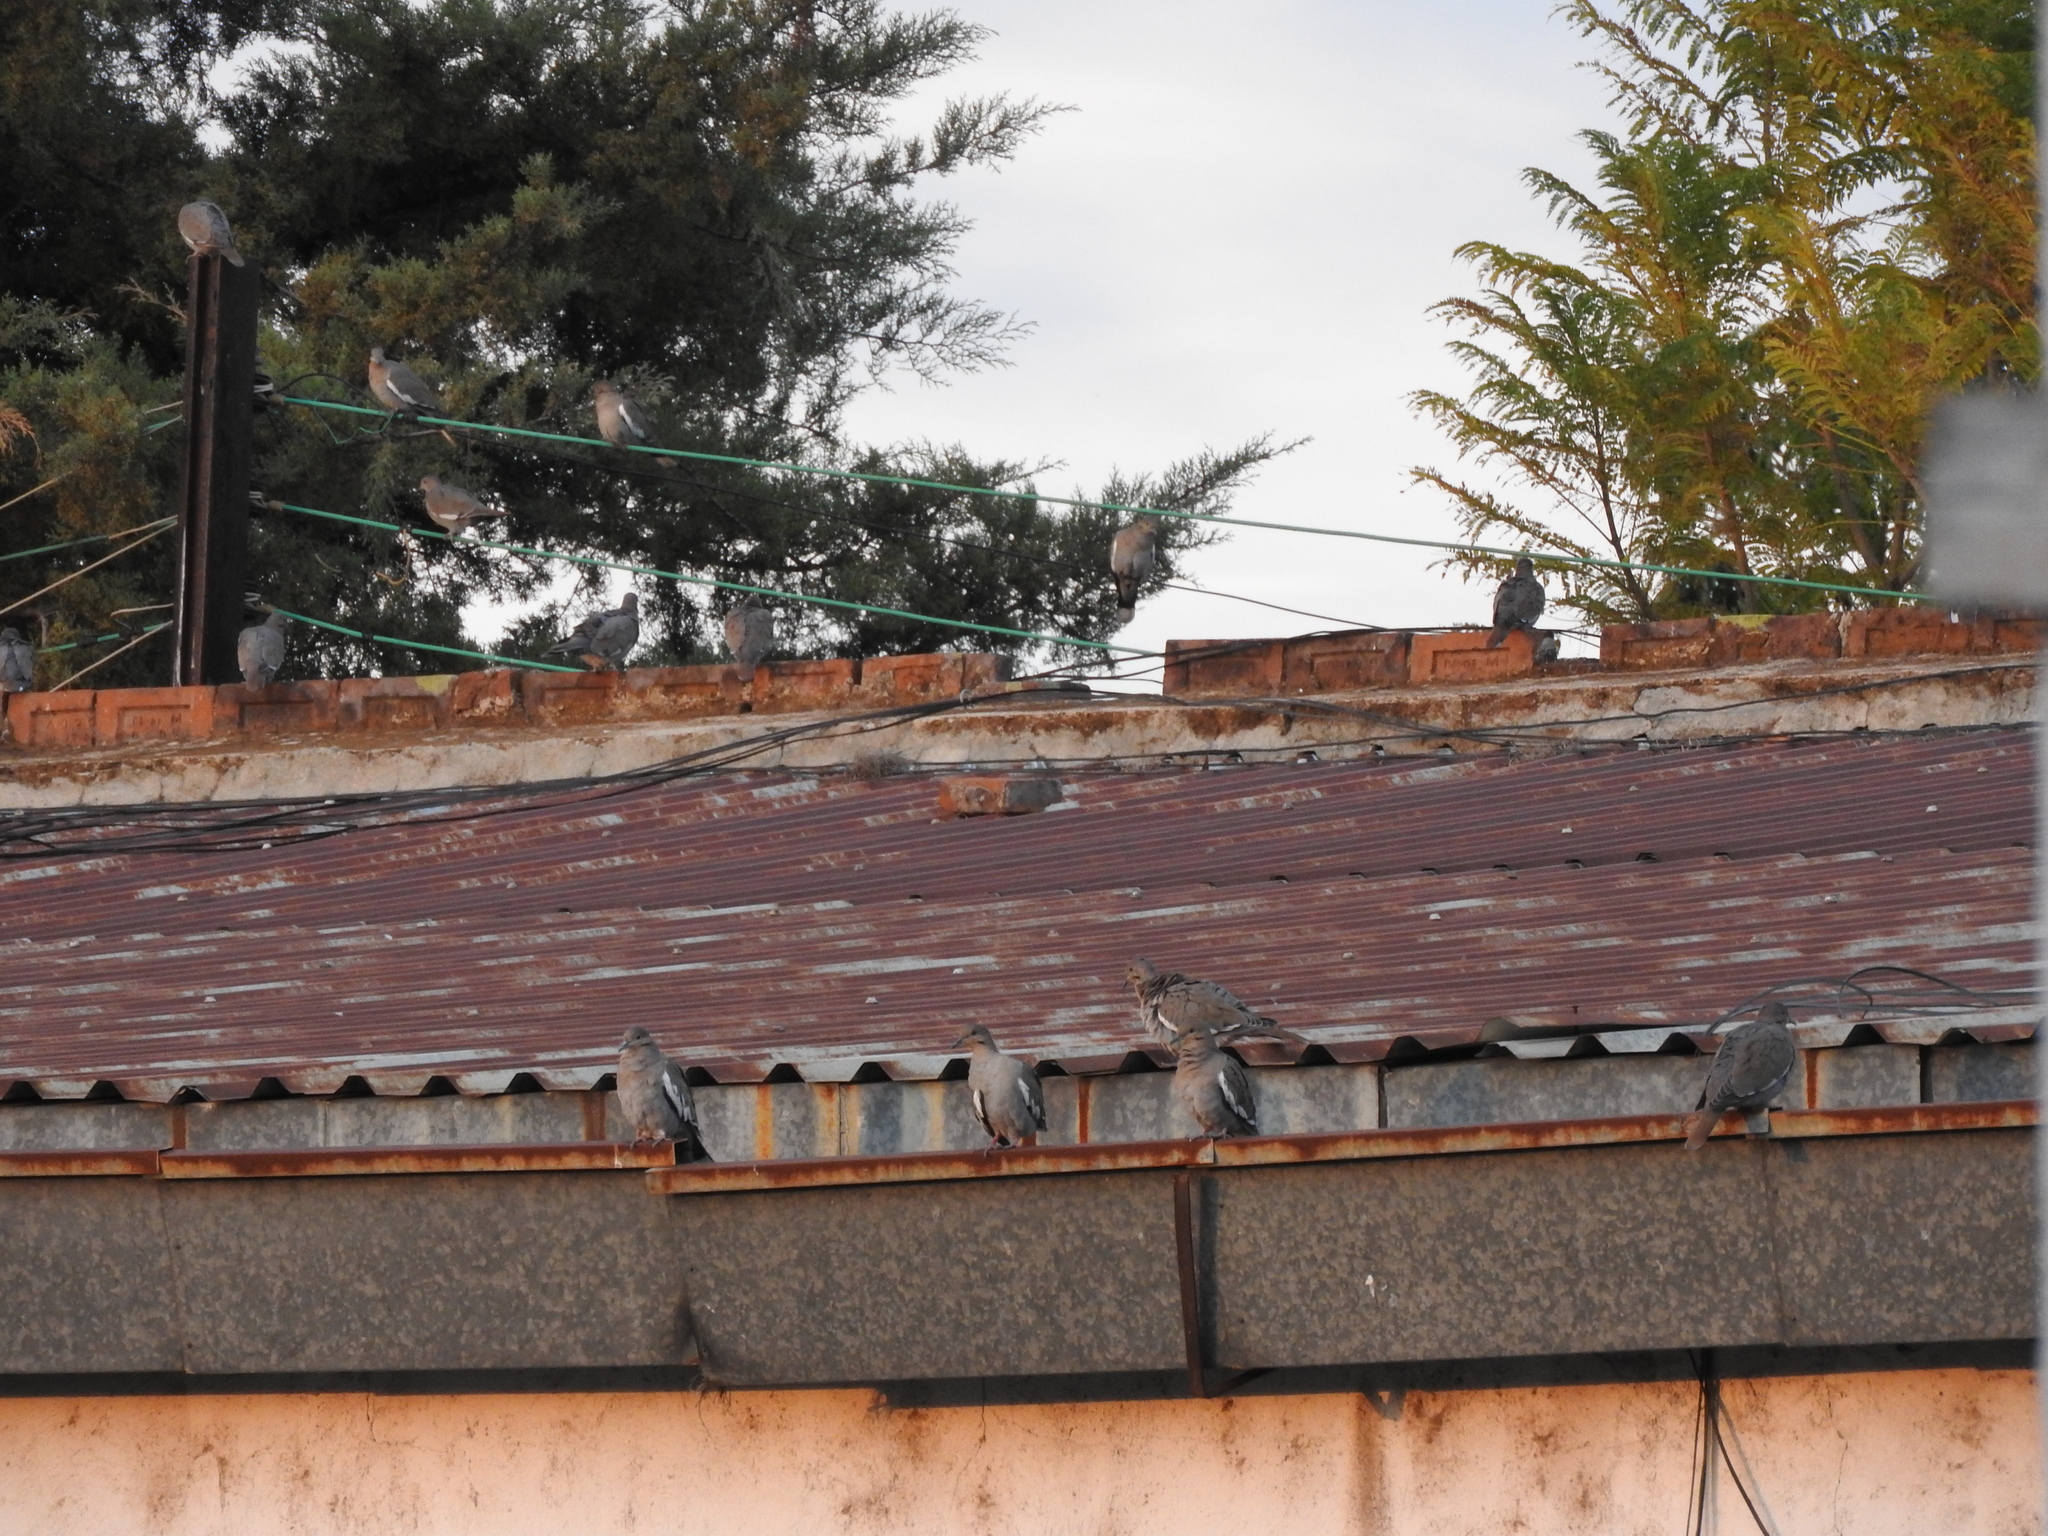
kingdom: Animalia
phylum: Chordata
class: Aves
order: Columbiformes
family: Columbidae
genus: Zenaida
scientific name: Zenaida asiatica
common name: White-winged dove
